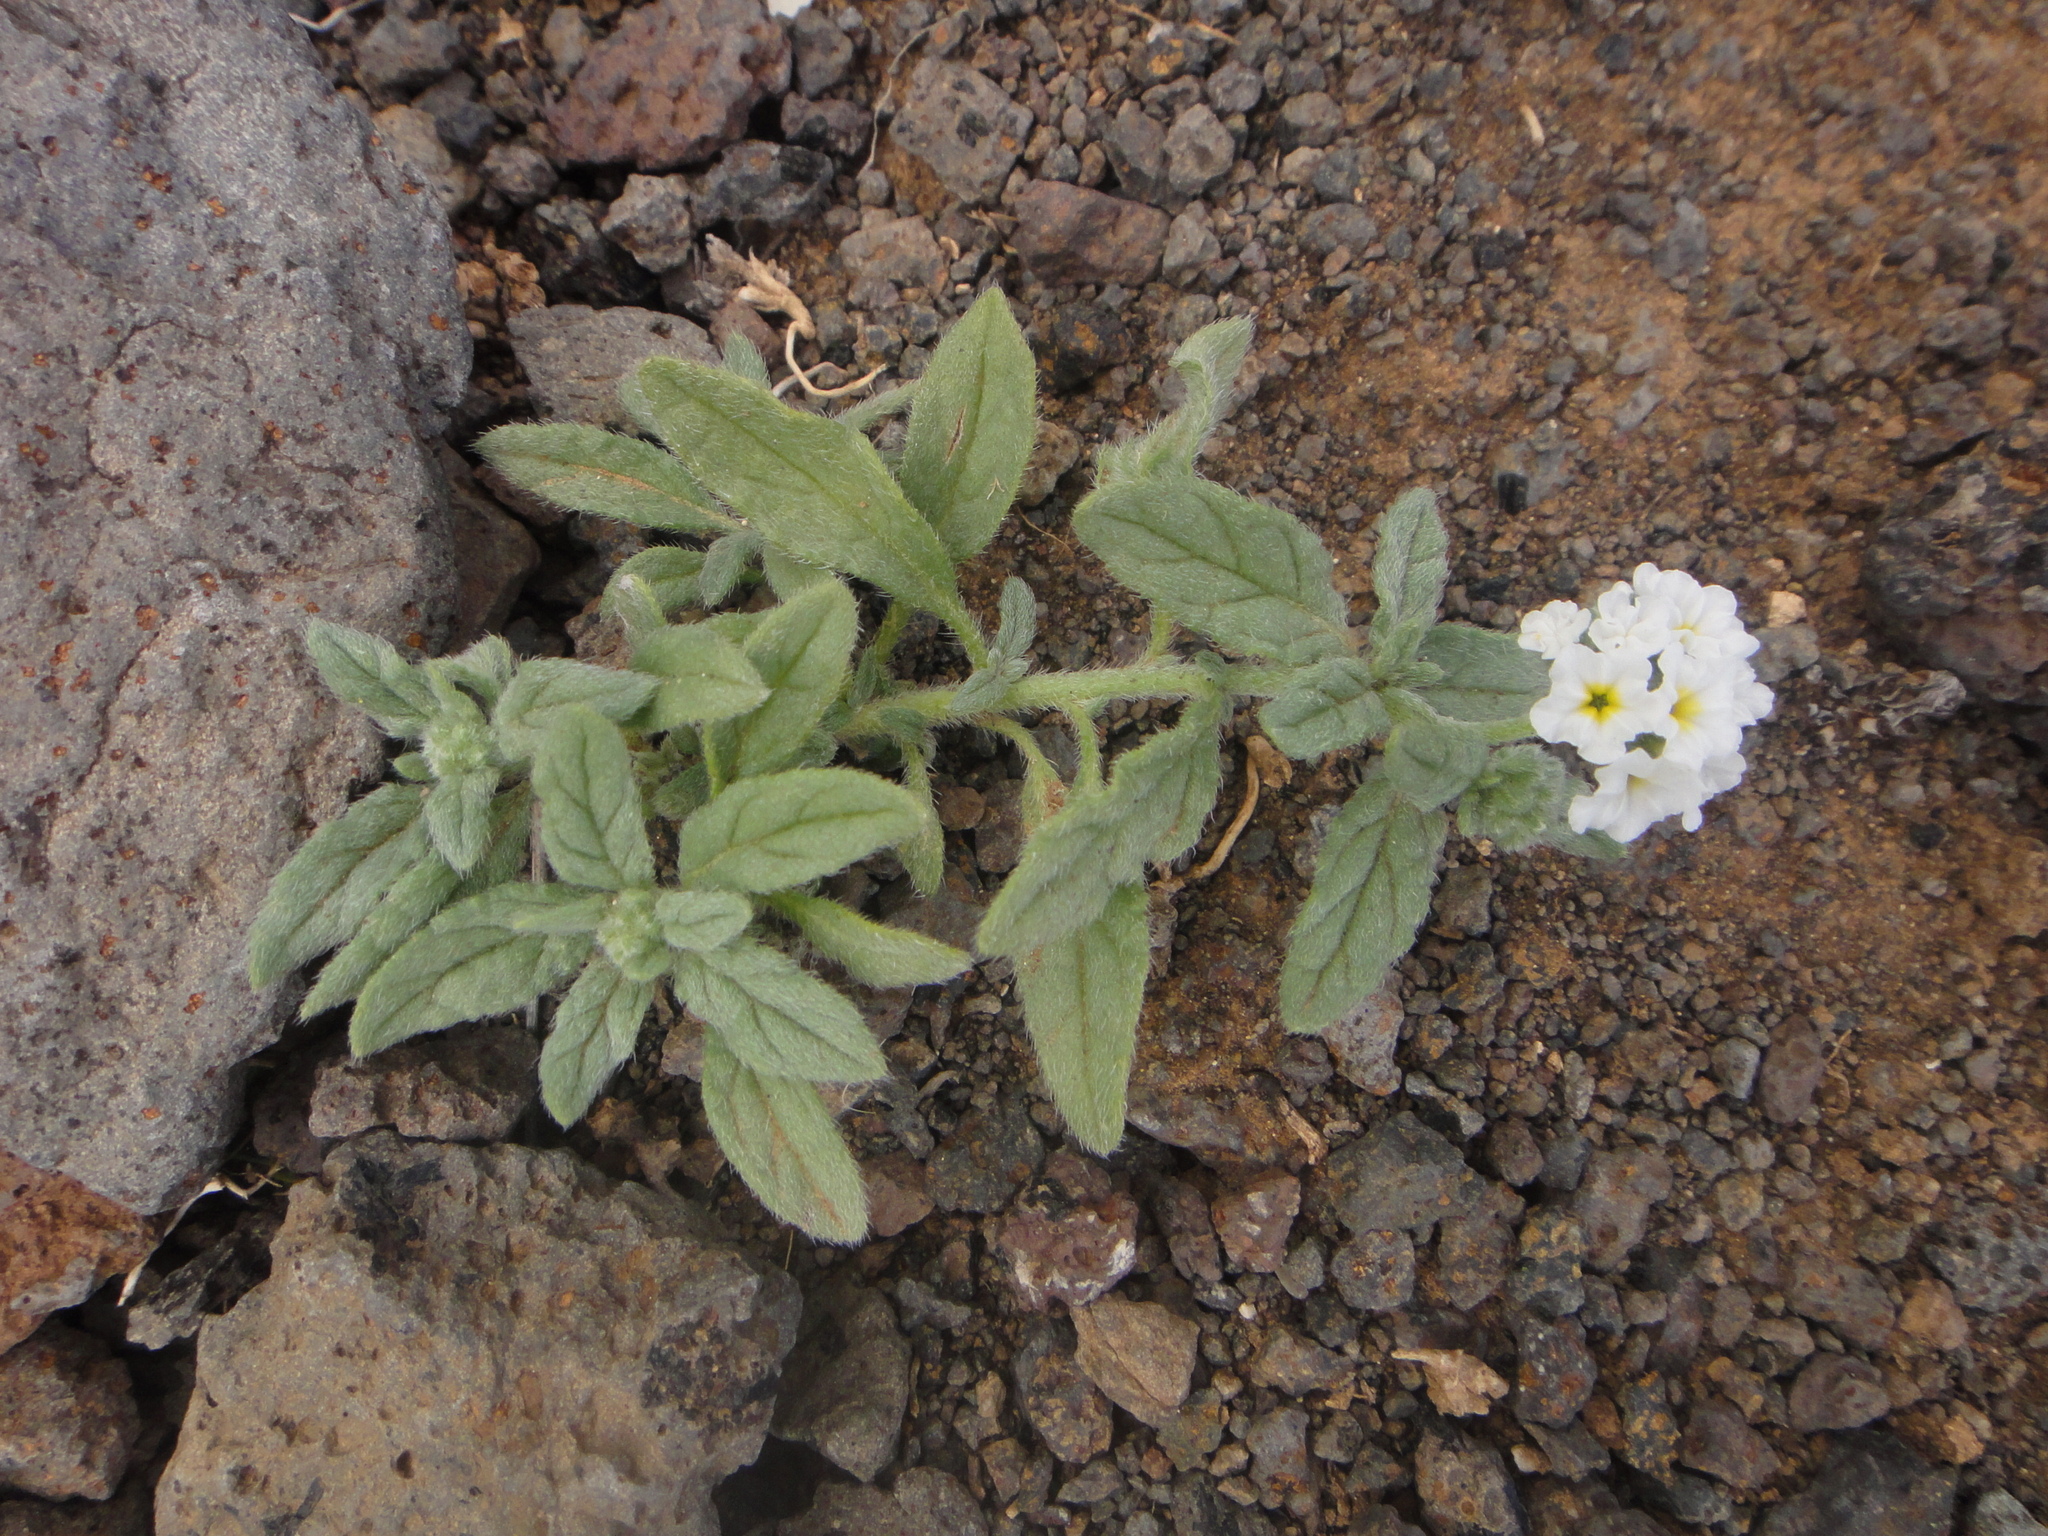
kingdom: Plantae
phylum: Tracheophyta
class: Magnoliopsida
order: Boraginales
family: Heliotropiaceae
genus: Heliotropium
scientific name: Heliotropium ramosissimum
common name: Wavy heliotrope
